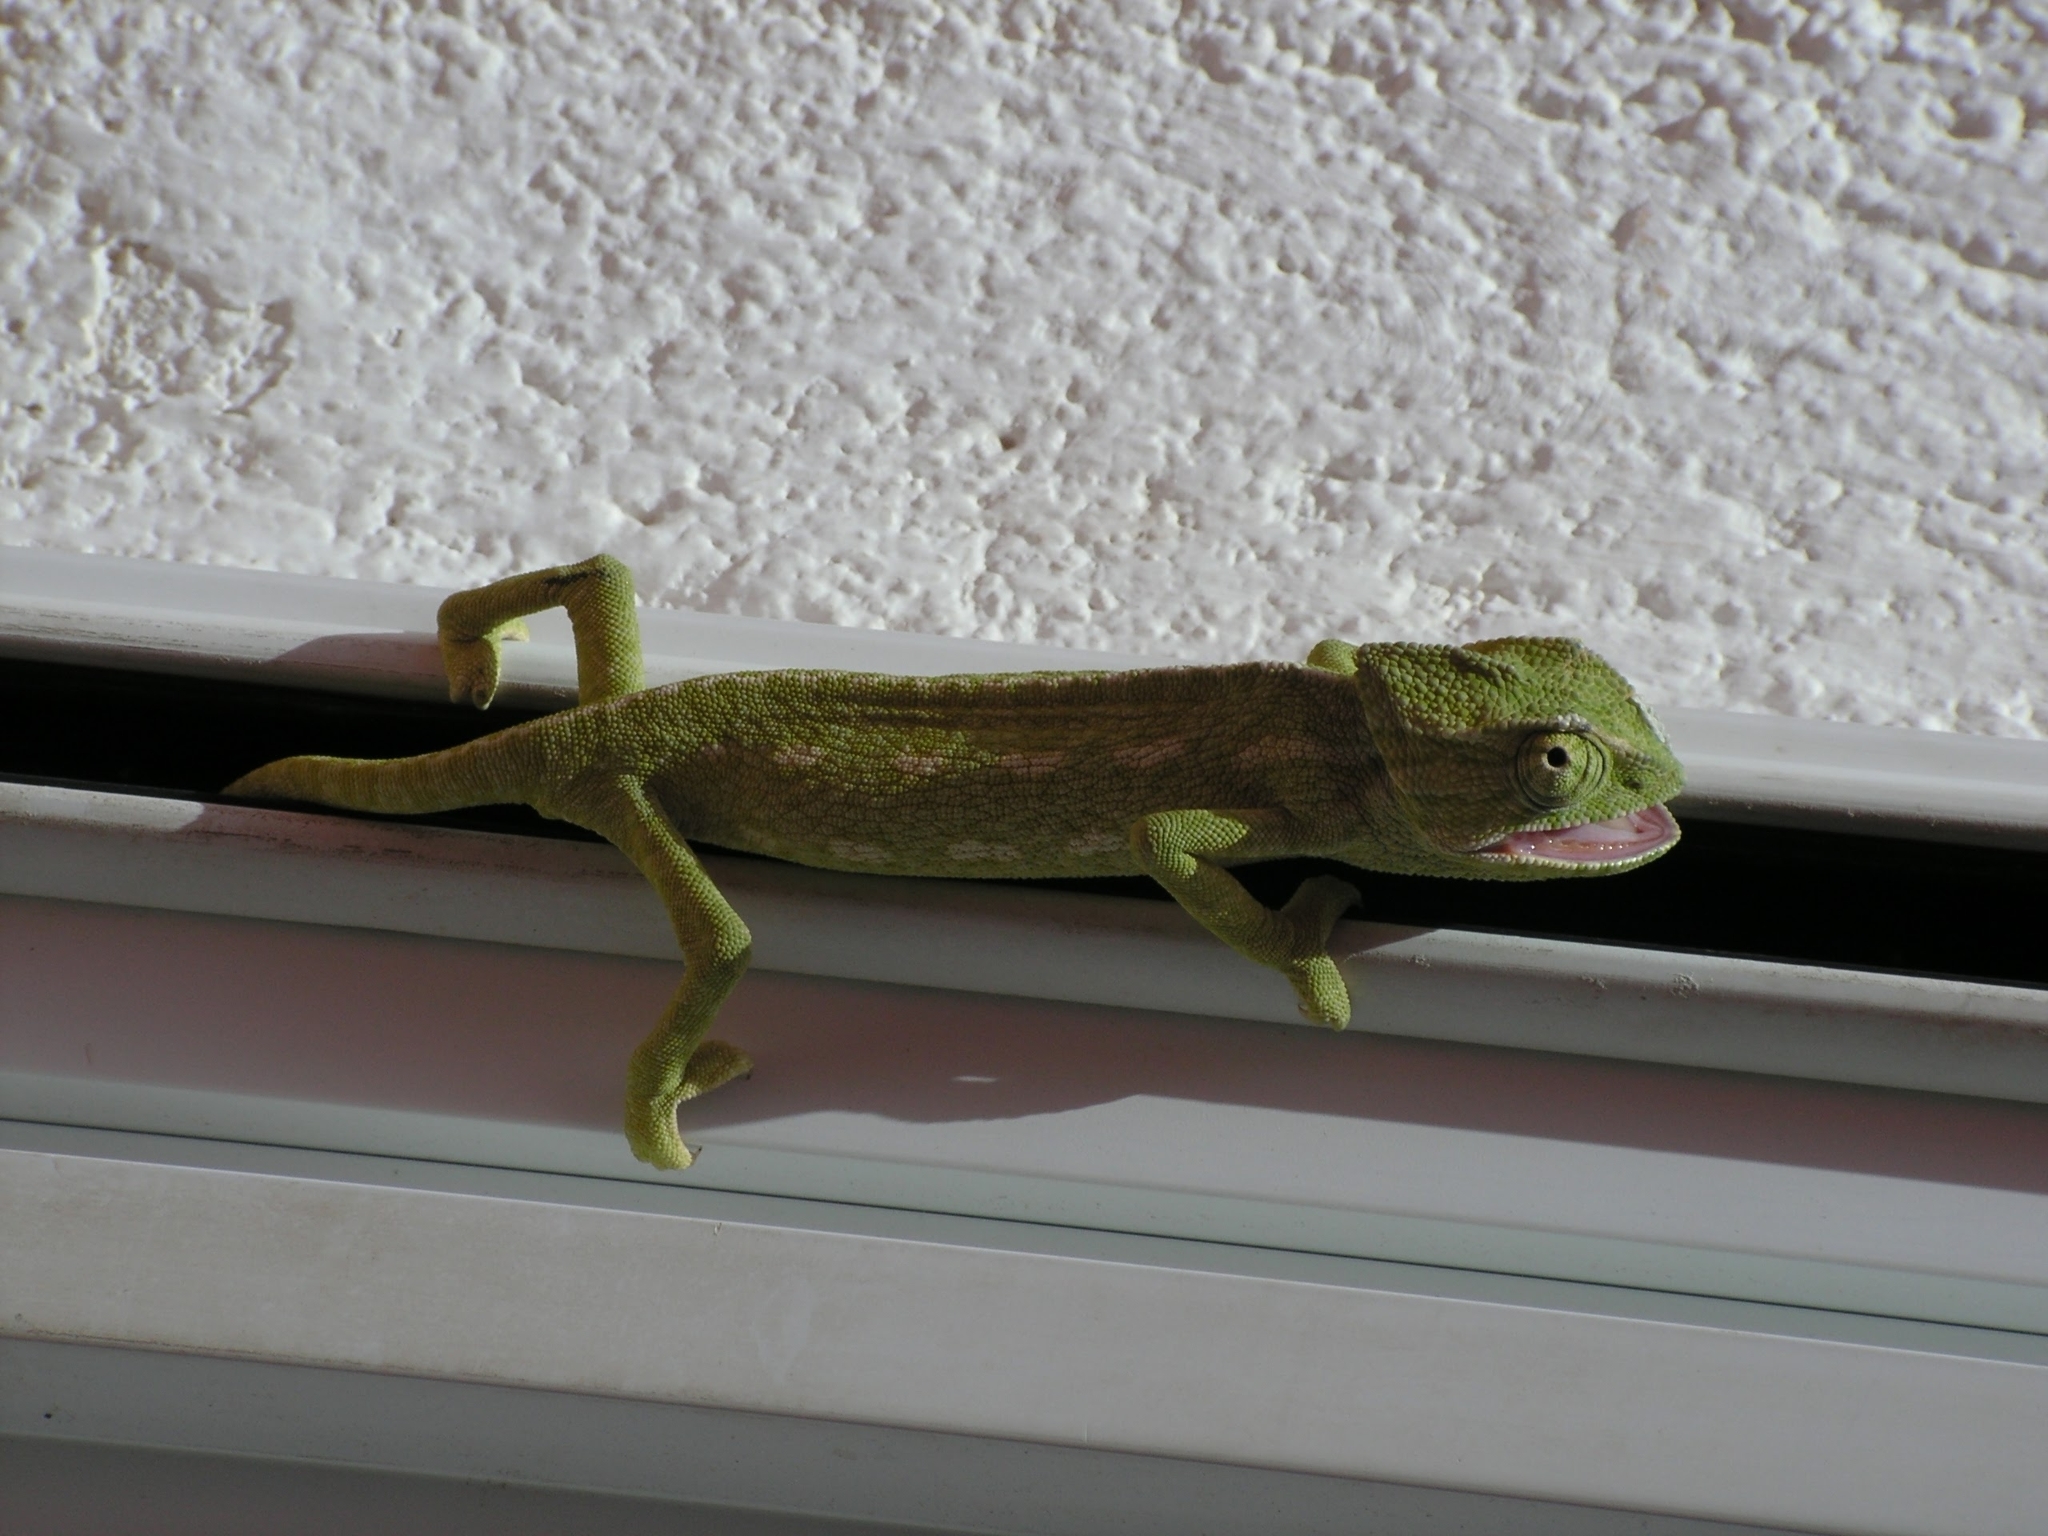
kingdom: Animalia
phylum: Chordata
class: Squamata
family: Chamaeleonidae
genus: Chamaeleo
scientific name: Chamaeleo chamaeleon
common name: Mediterranean chameleon
